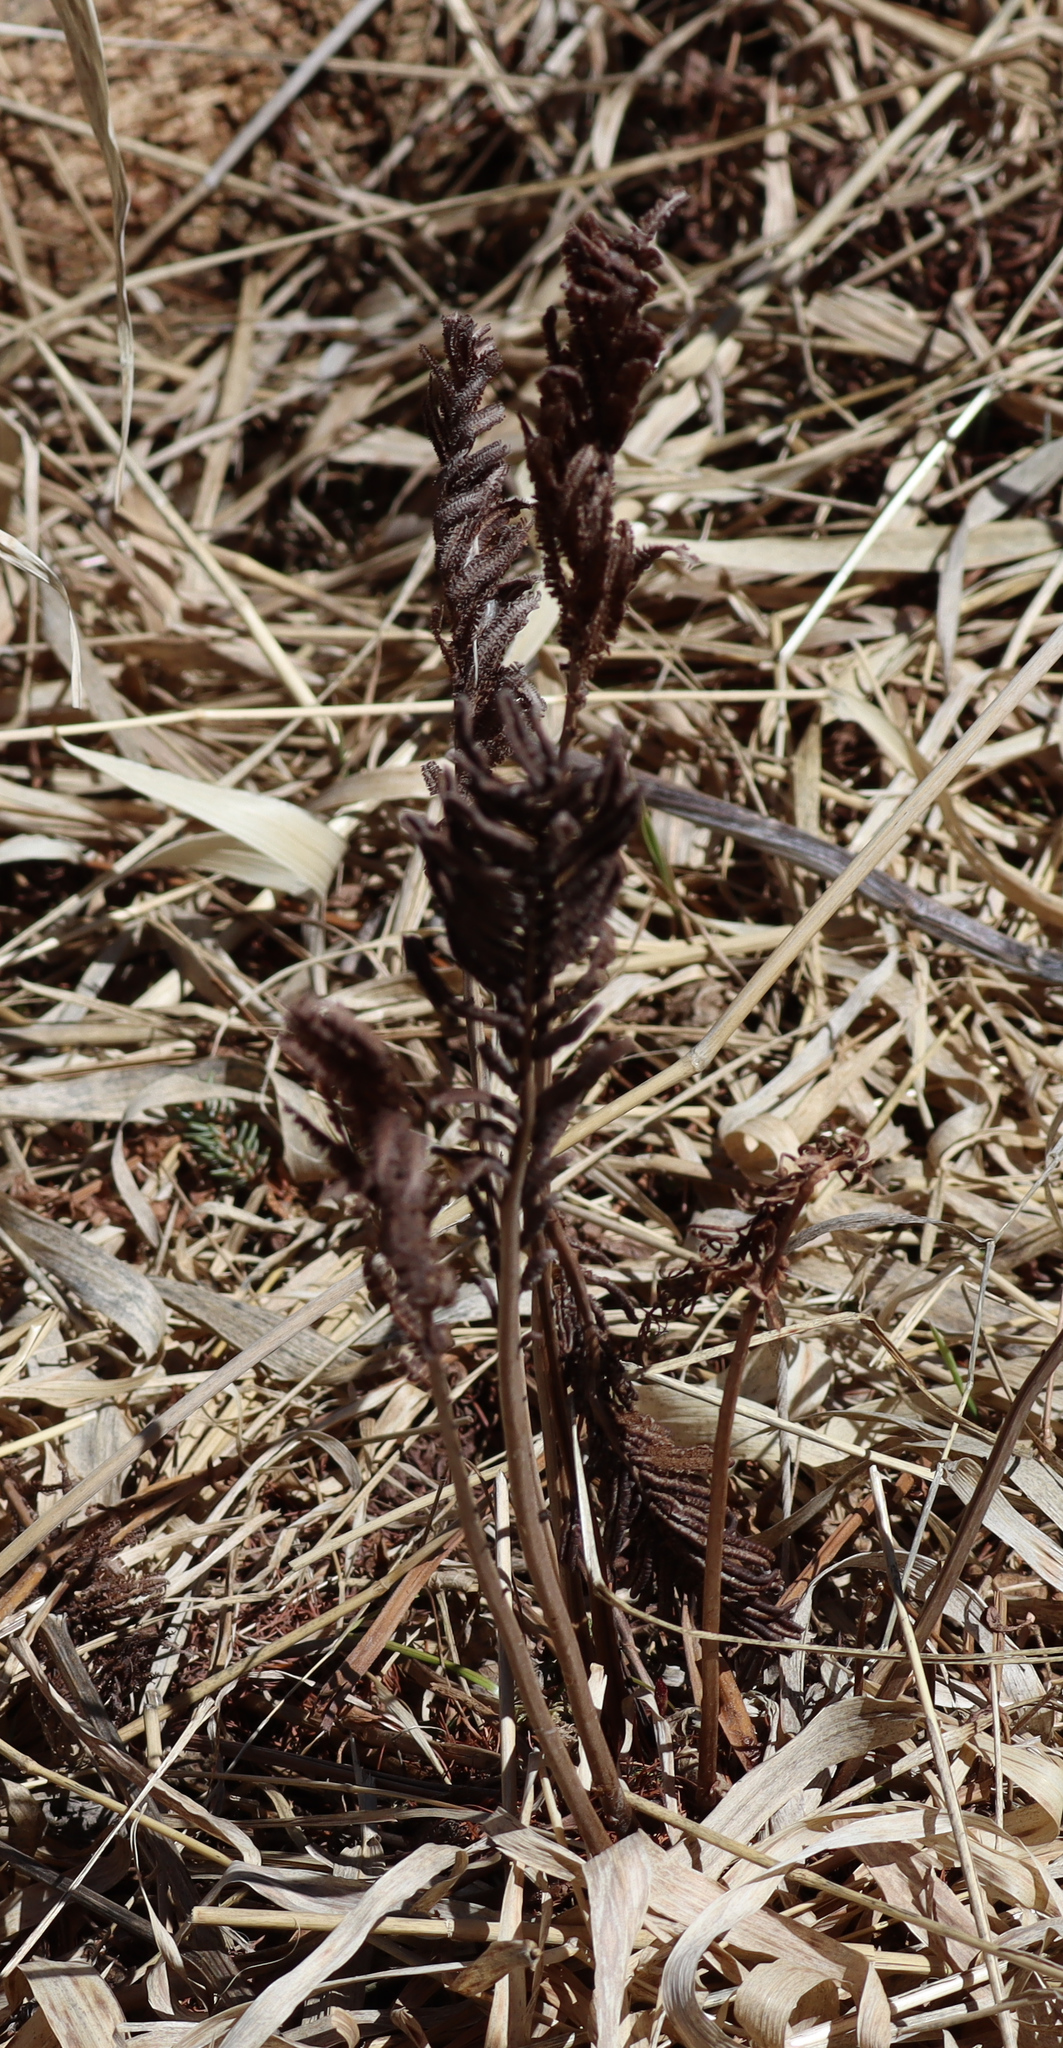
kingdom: Plantae
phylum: Tracheophyta
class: Polypodiopsida
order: Polypodiales
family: Onocleaceae
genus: Matteuccia
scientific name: Matteuccia struthiopteris
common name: Ostrich fern
